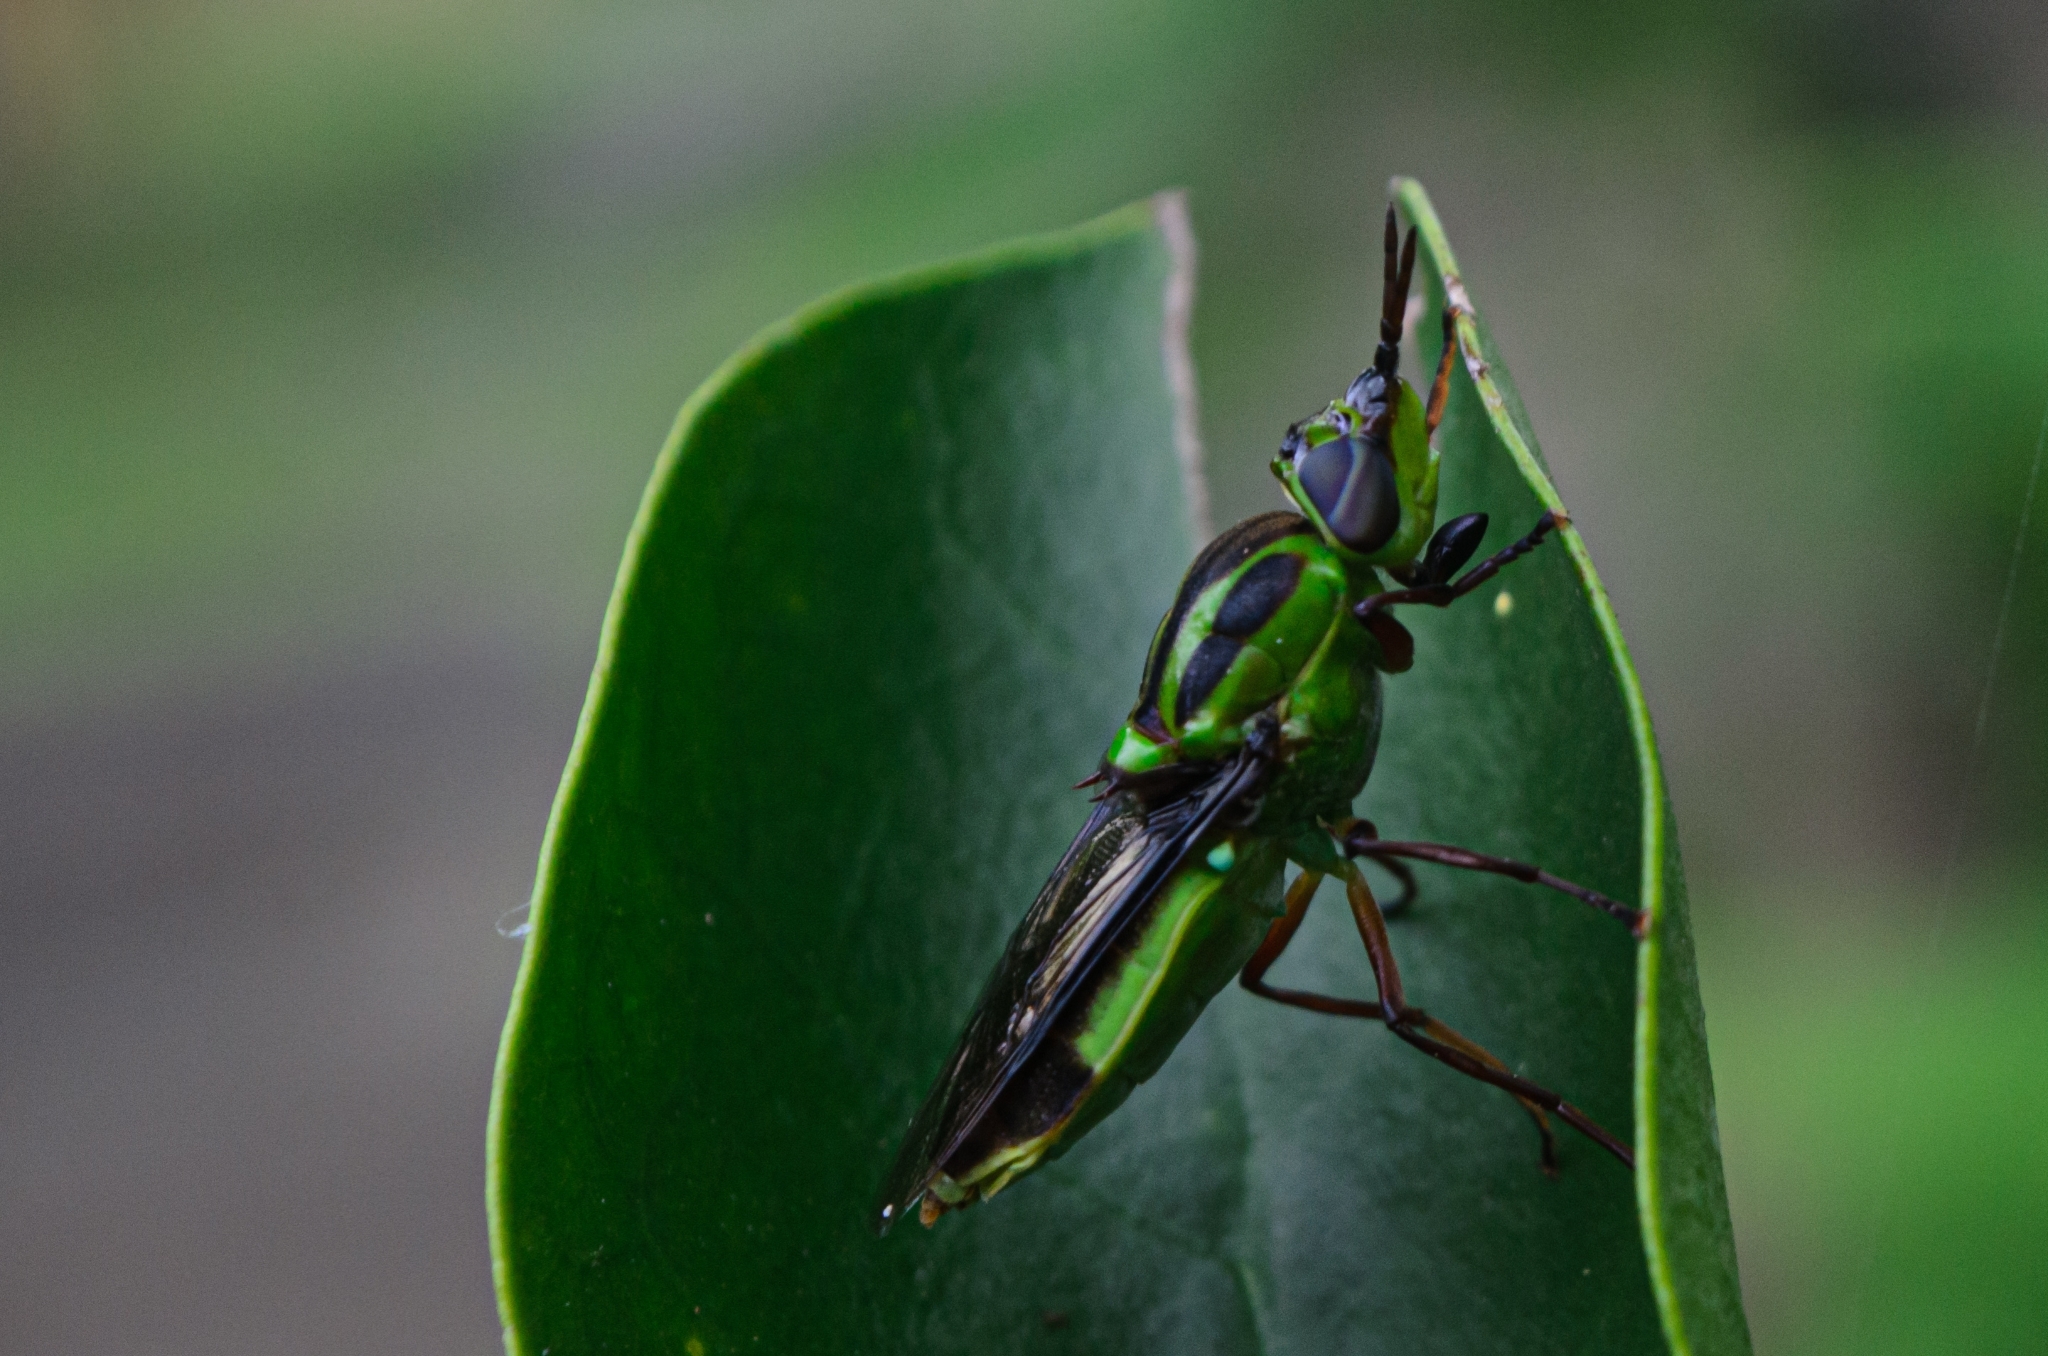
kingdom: Animalia
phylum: Arthropoda
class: Insecta
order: Diptera
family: Stratiomyidae
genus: Hedriodiscus
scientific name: Hedriodiscus pulcher
